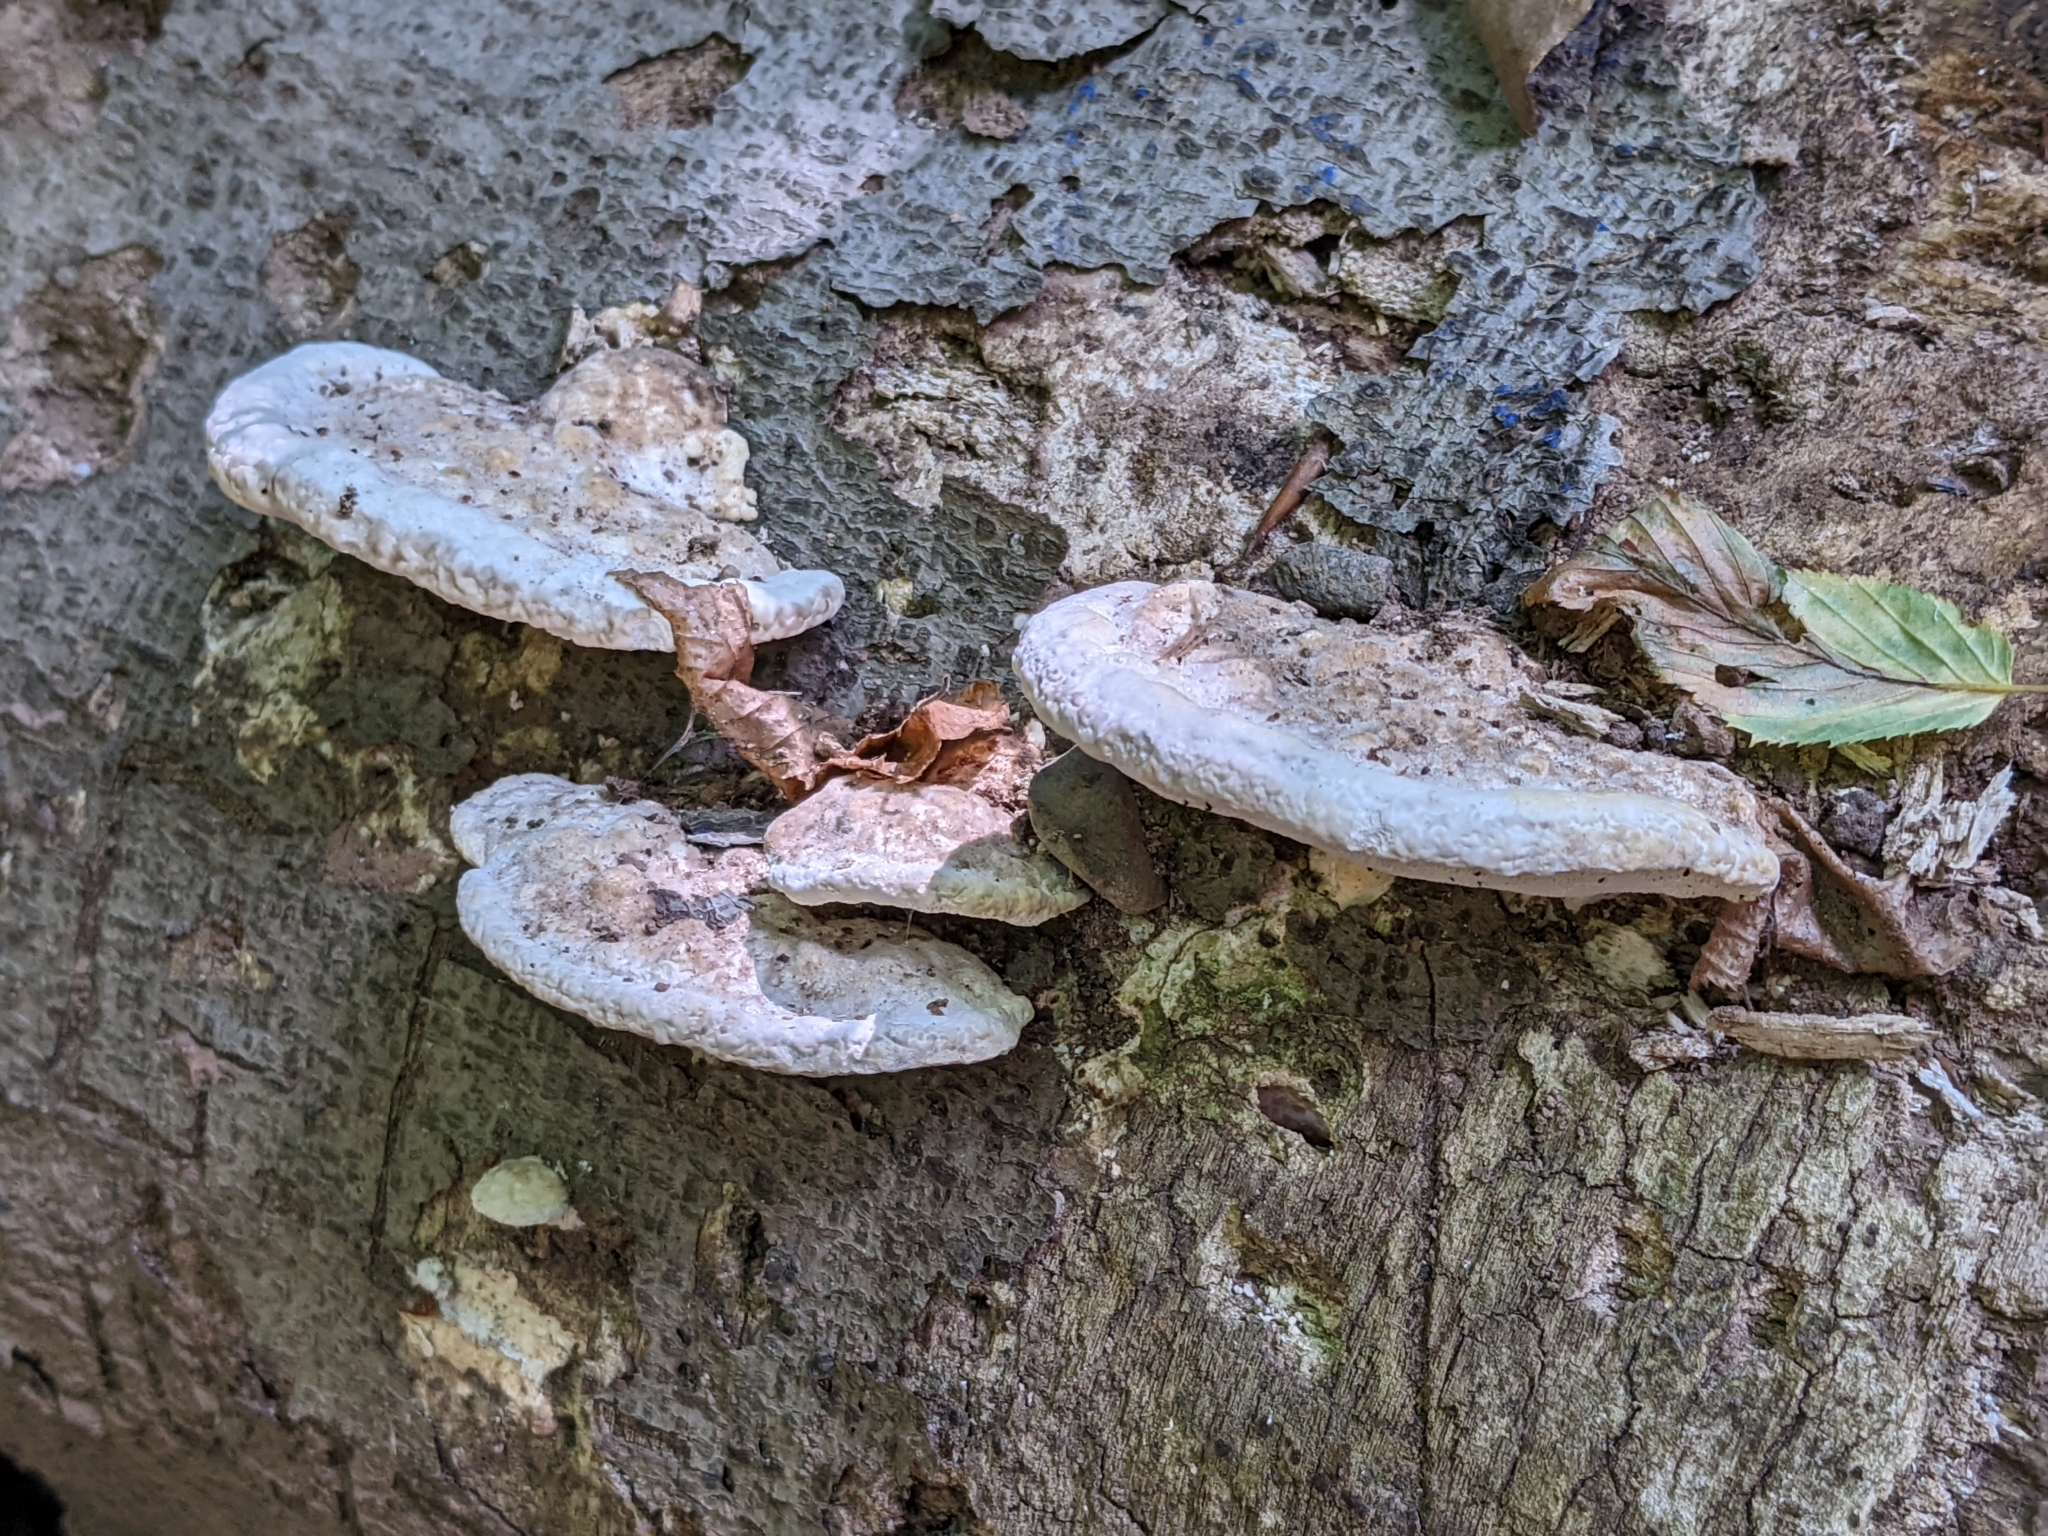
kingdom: Fungi
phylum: Basidiomycota
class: Agaricomycetes
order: Polyporales
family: Polyporaceae
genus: Trametes
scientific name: Trametes gibbosa
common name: Lumpy bracket
